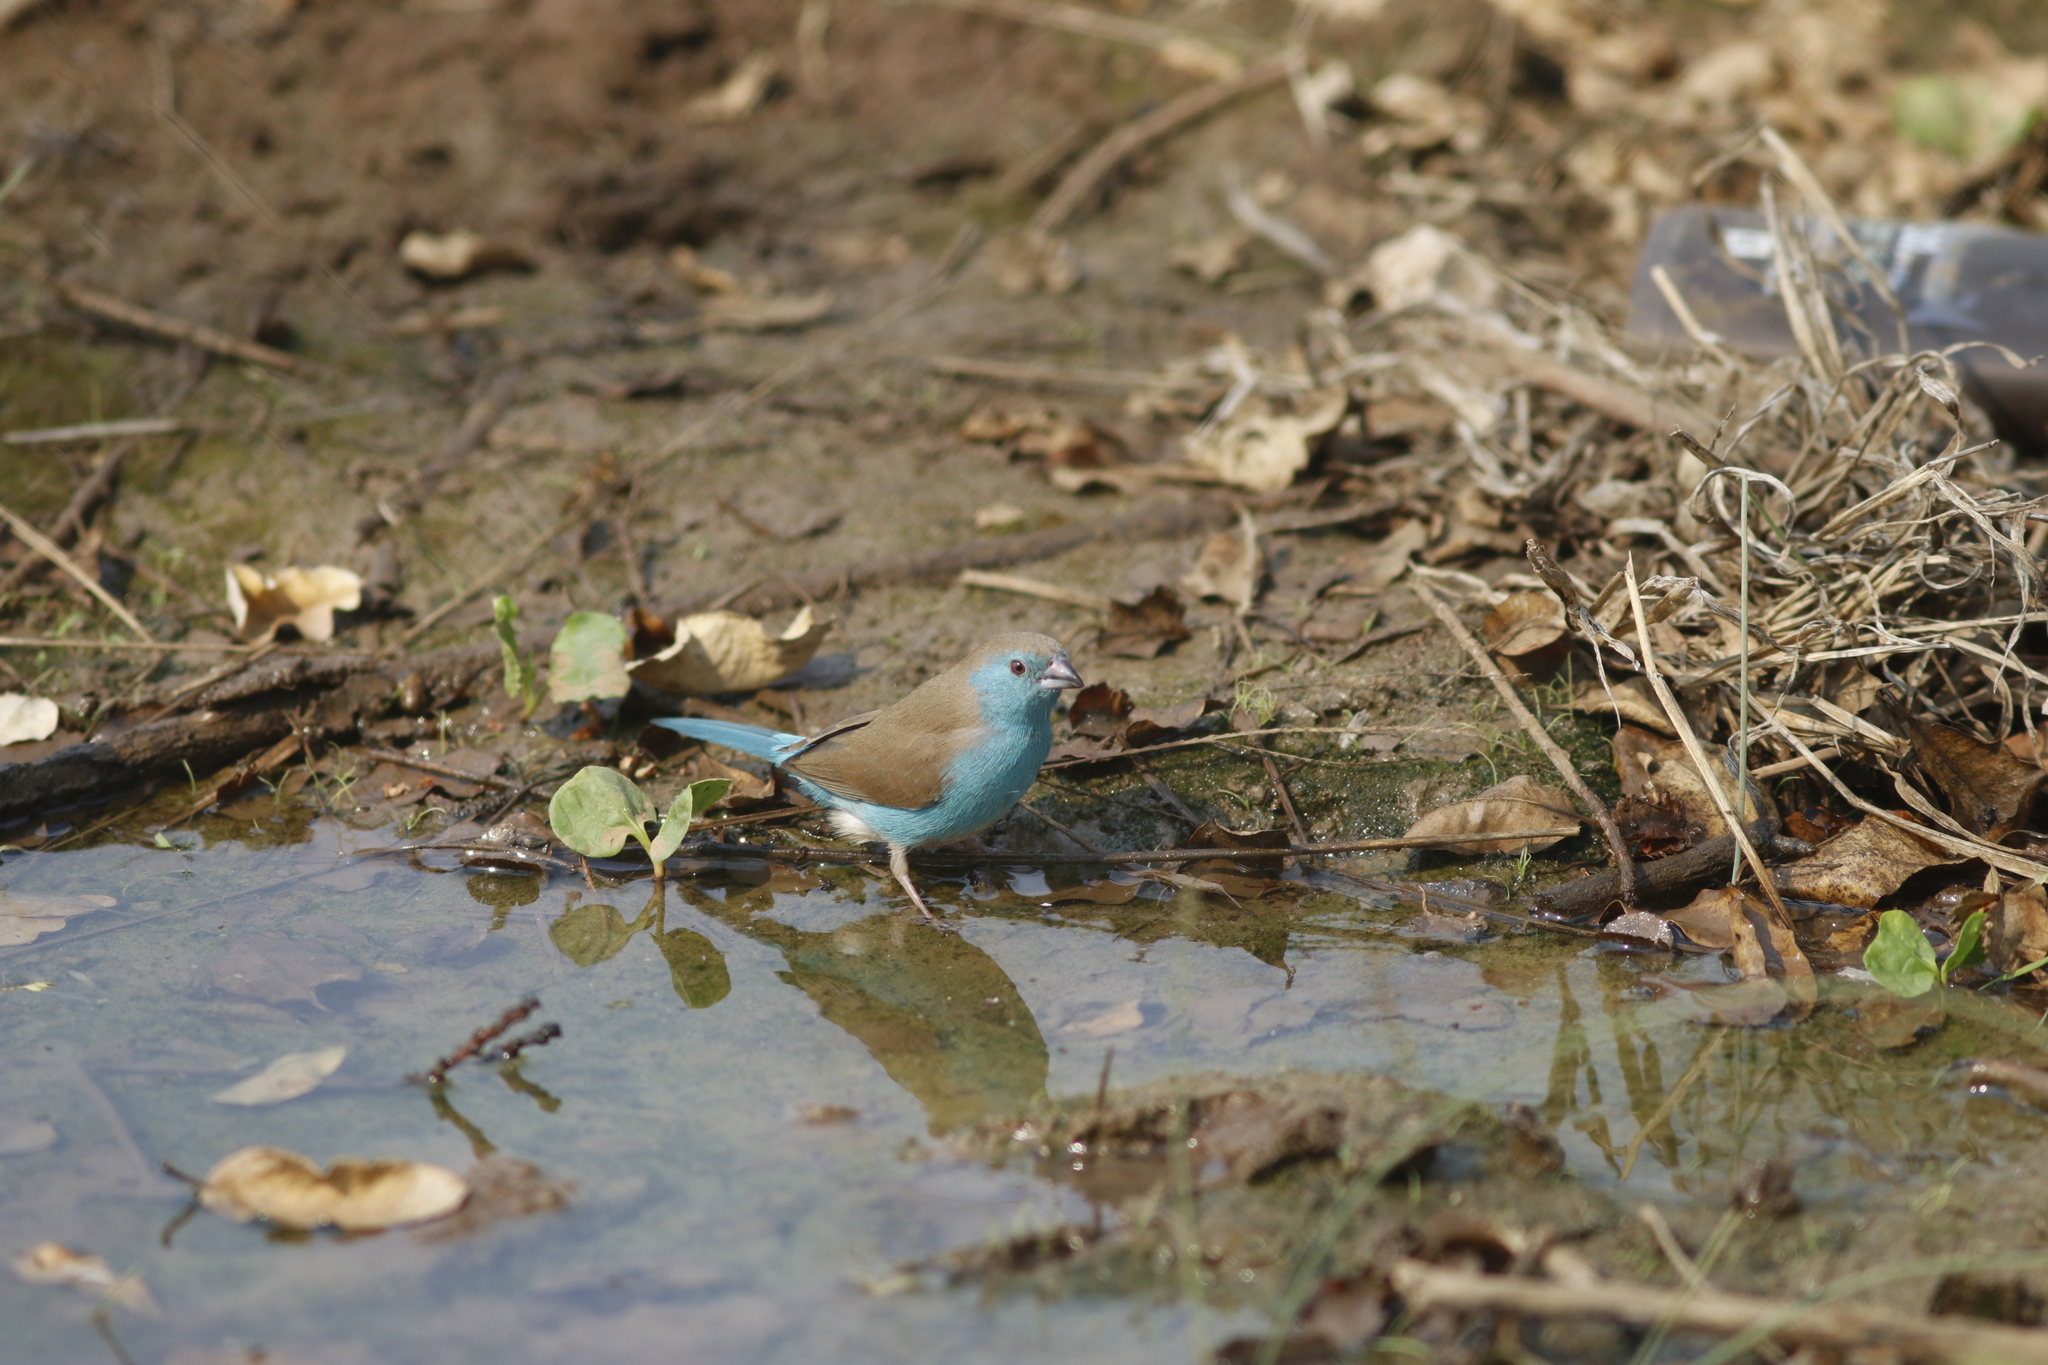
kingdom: Animalia
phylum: Chordata
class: Aves
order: Passeriformes
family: Estrildidae
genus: Uraeginthus
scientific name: Uraeginthus angolensis
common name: Blue waxbill
